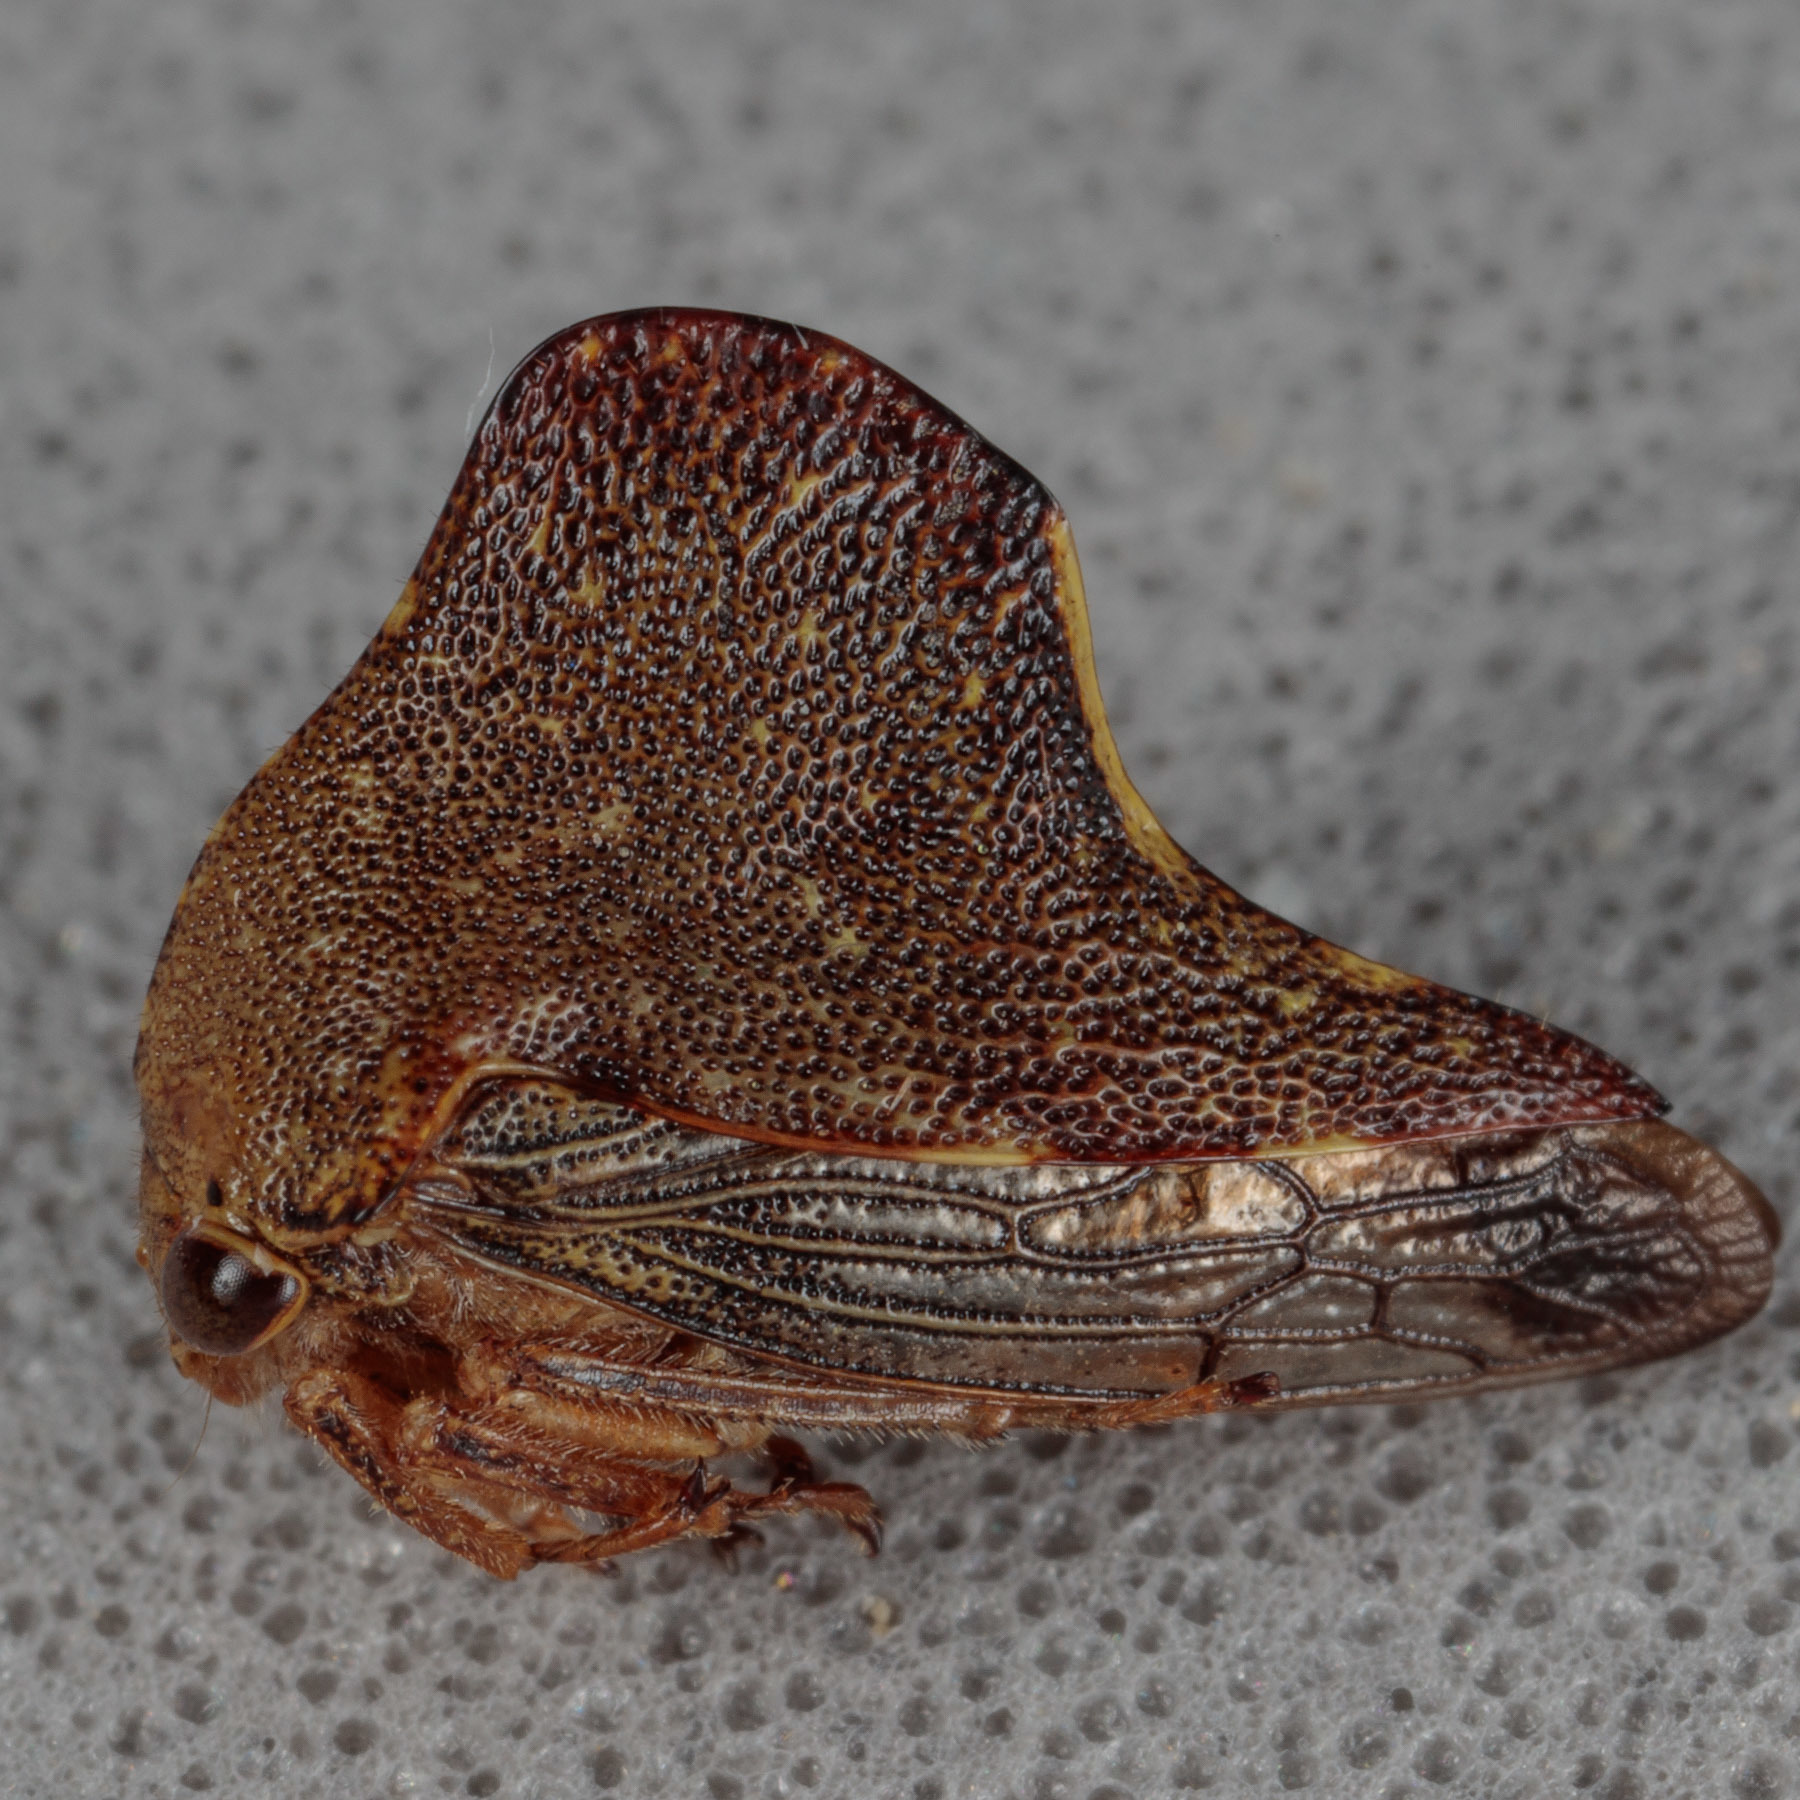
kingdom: Animalia
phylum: Arthropoda
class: Insecta
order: Hemiptera
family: Membracidae
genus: Telamona
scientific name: Telamona monticola
